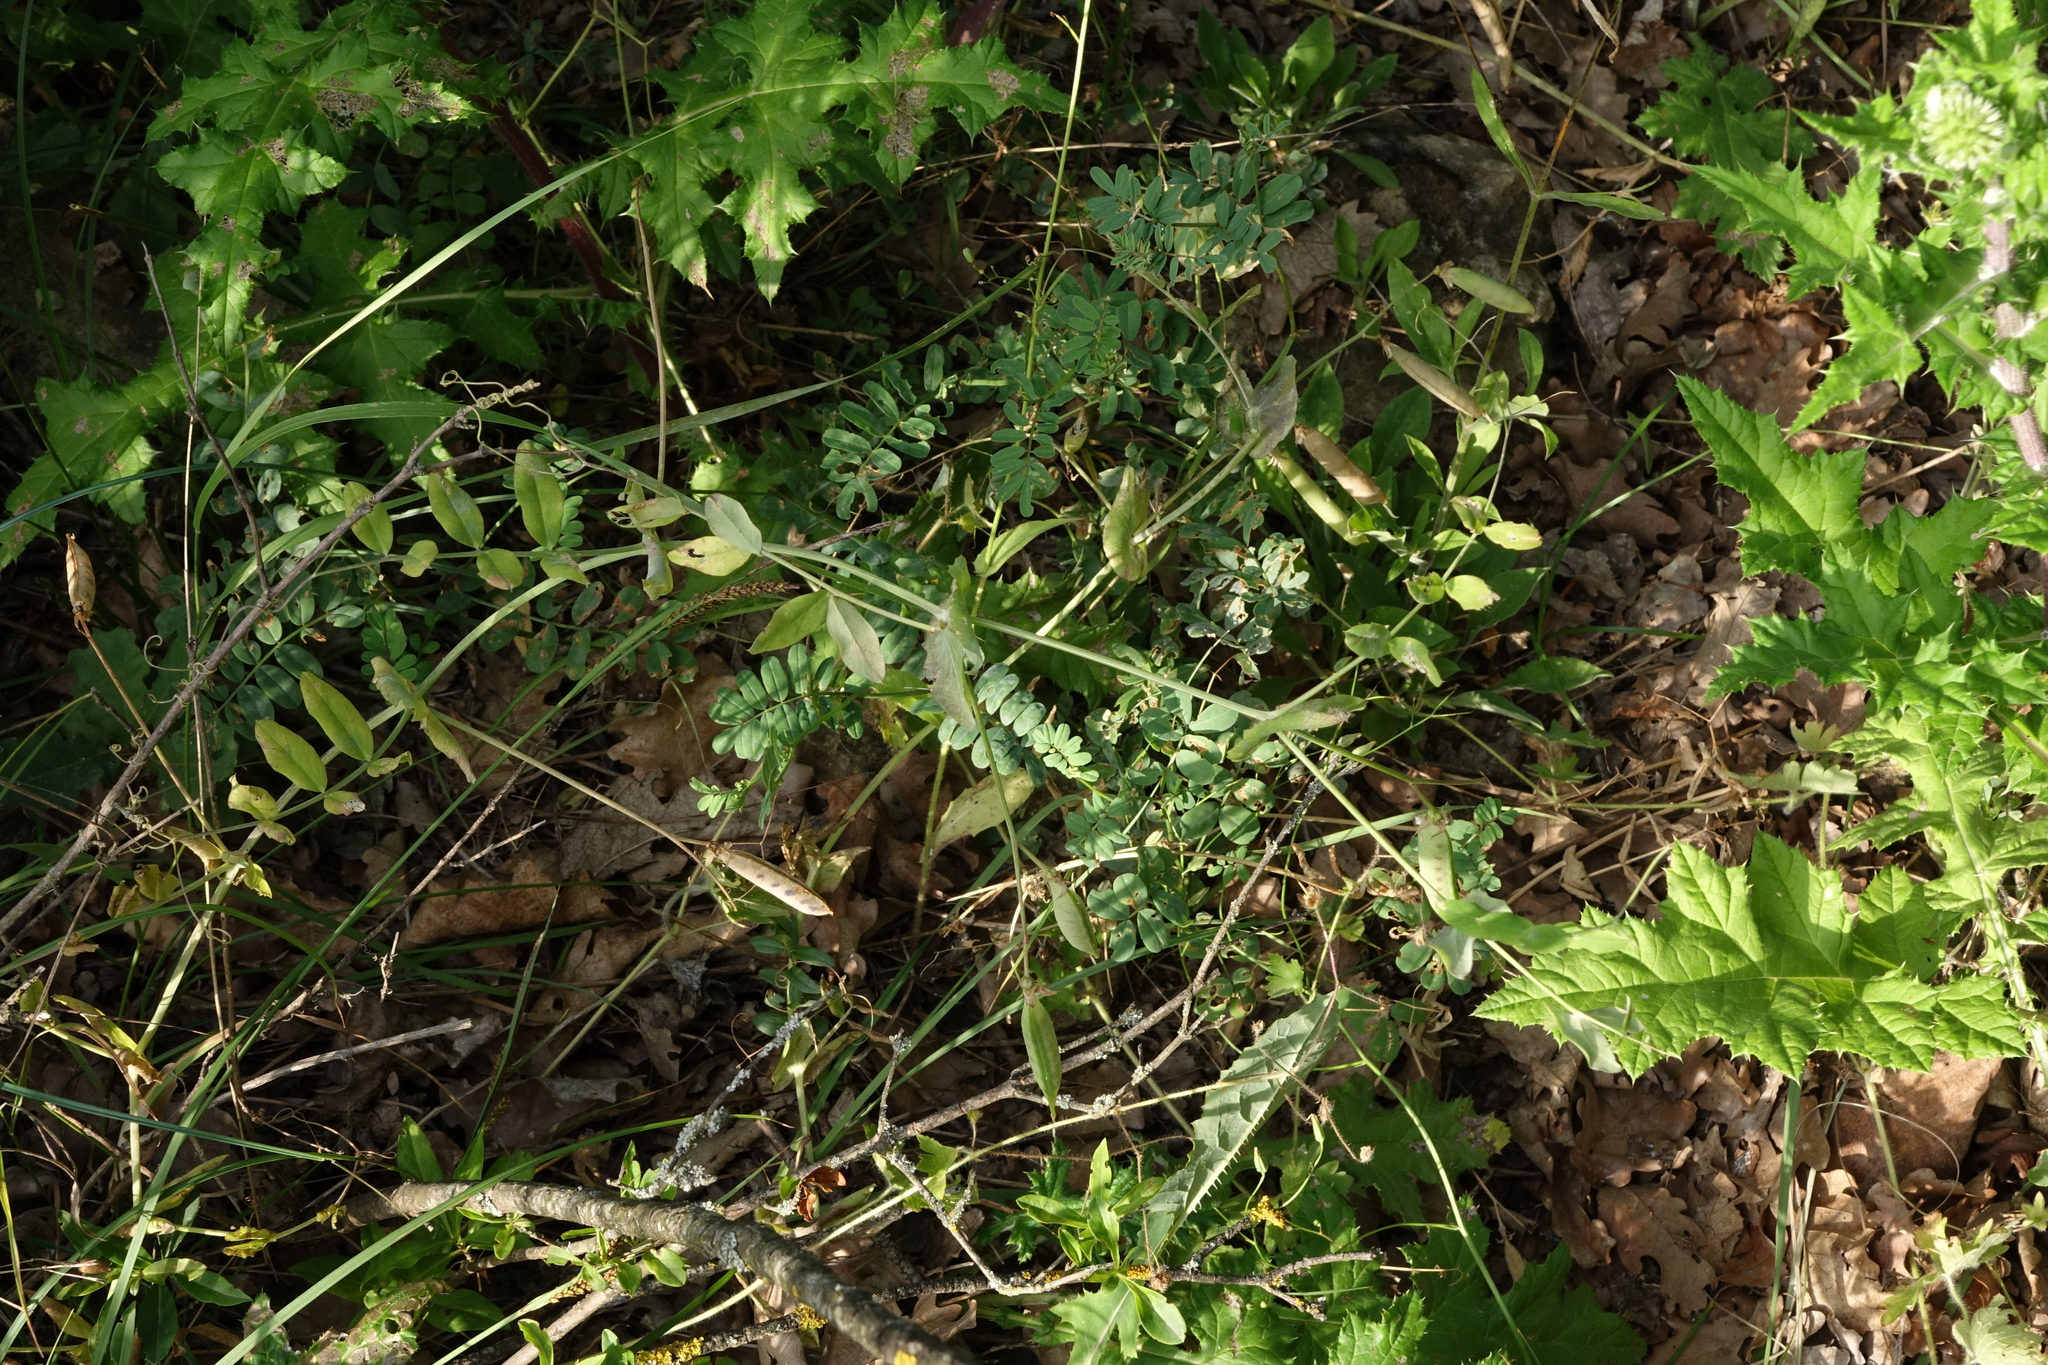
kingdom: Plantae
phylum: Tracheophyta
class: Magnoliopsida
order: Fabales
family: Fabaceae
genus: Lathyrus
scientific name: Lathyrus oleraceus
